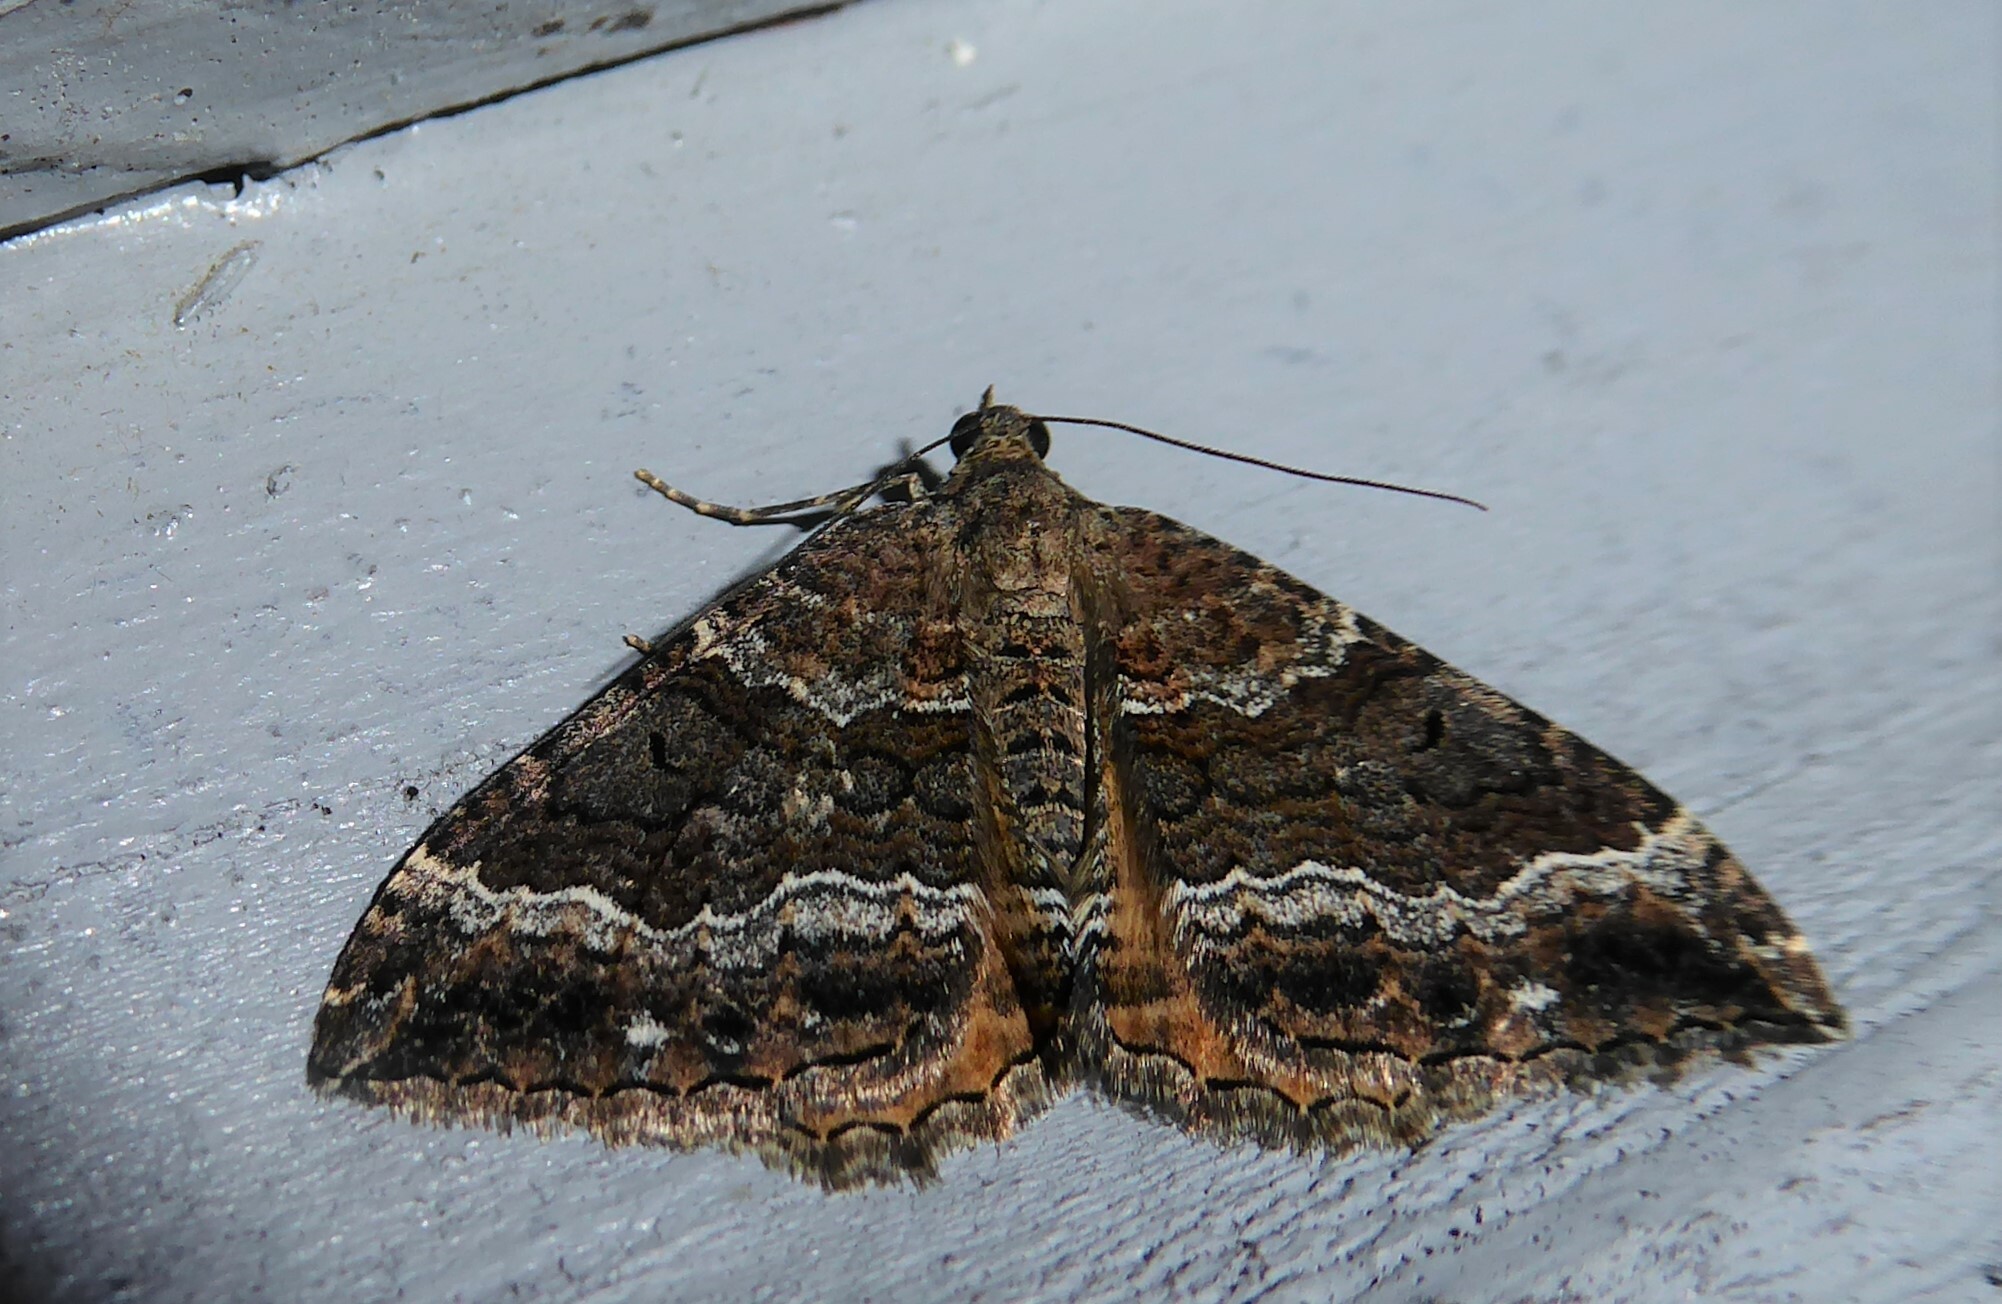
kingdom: Animalia
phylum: Arthropoda
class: Insecta
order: Lepidoptera
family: Geometridae
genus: Hydriomena
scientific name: Hydriomena deltoidata
